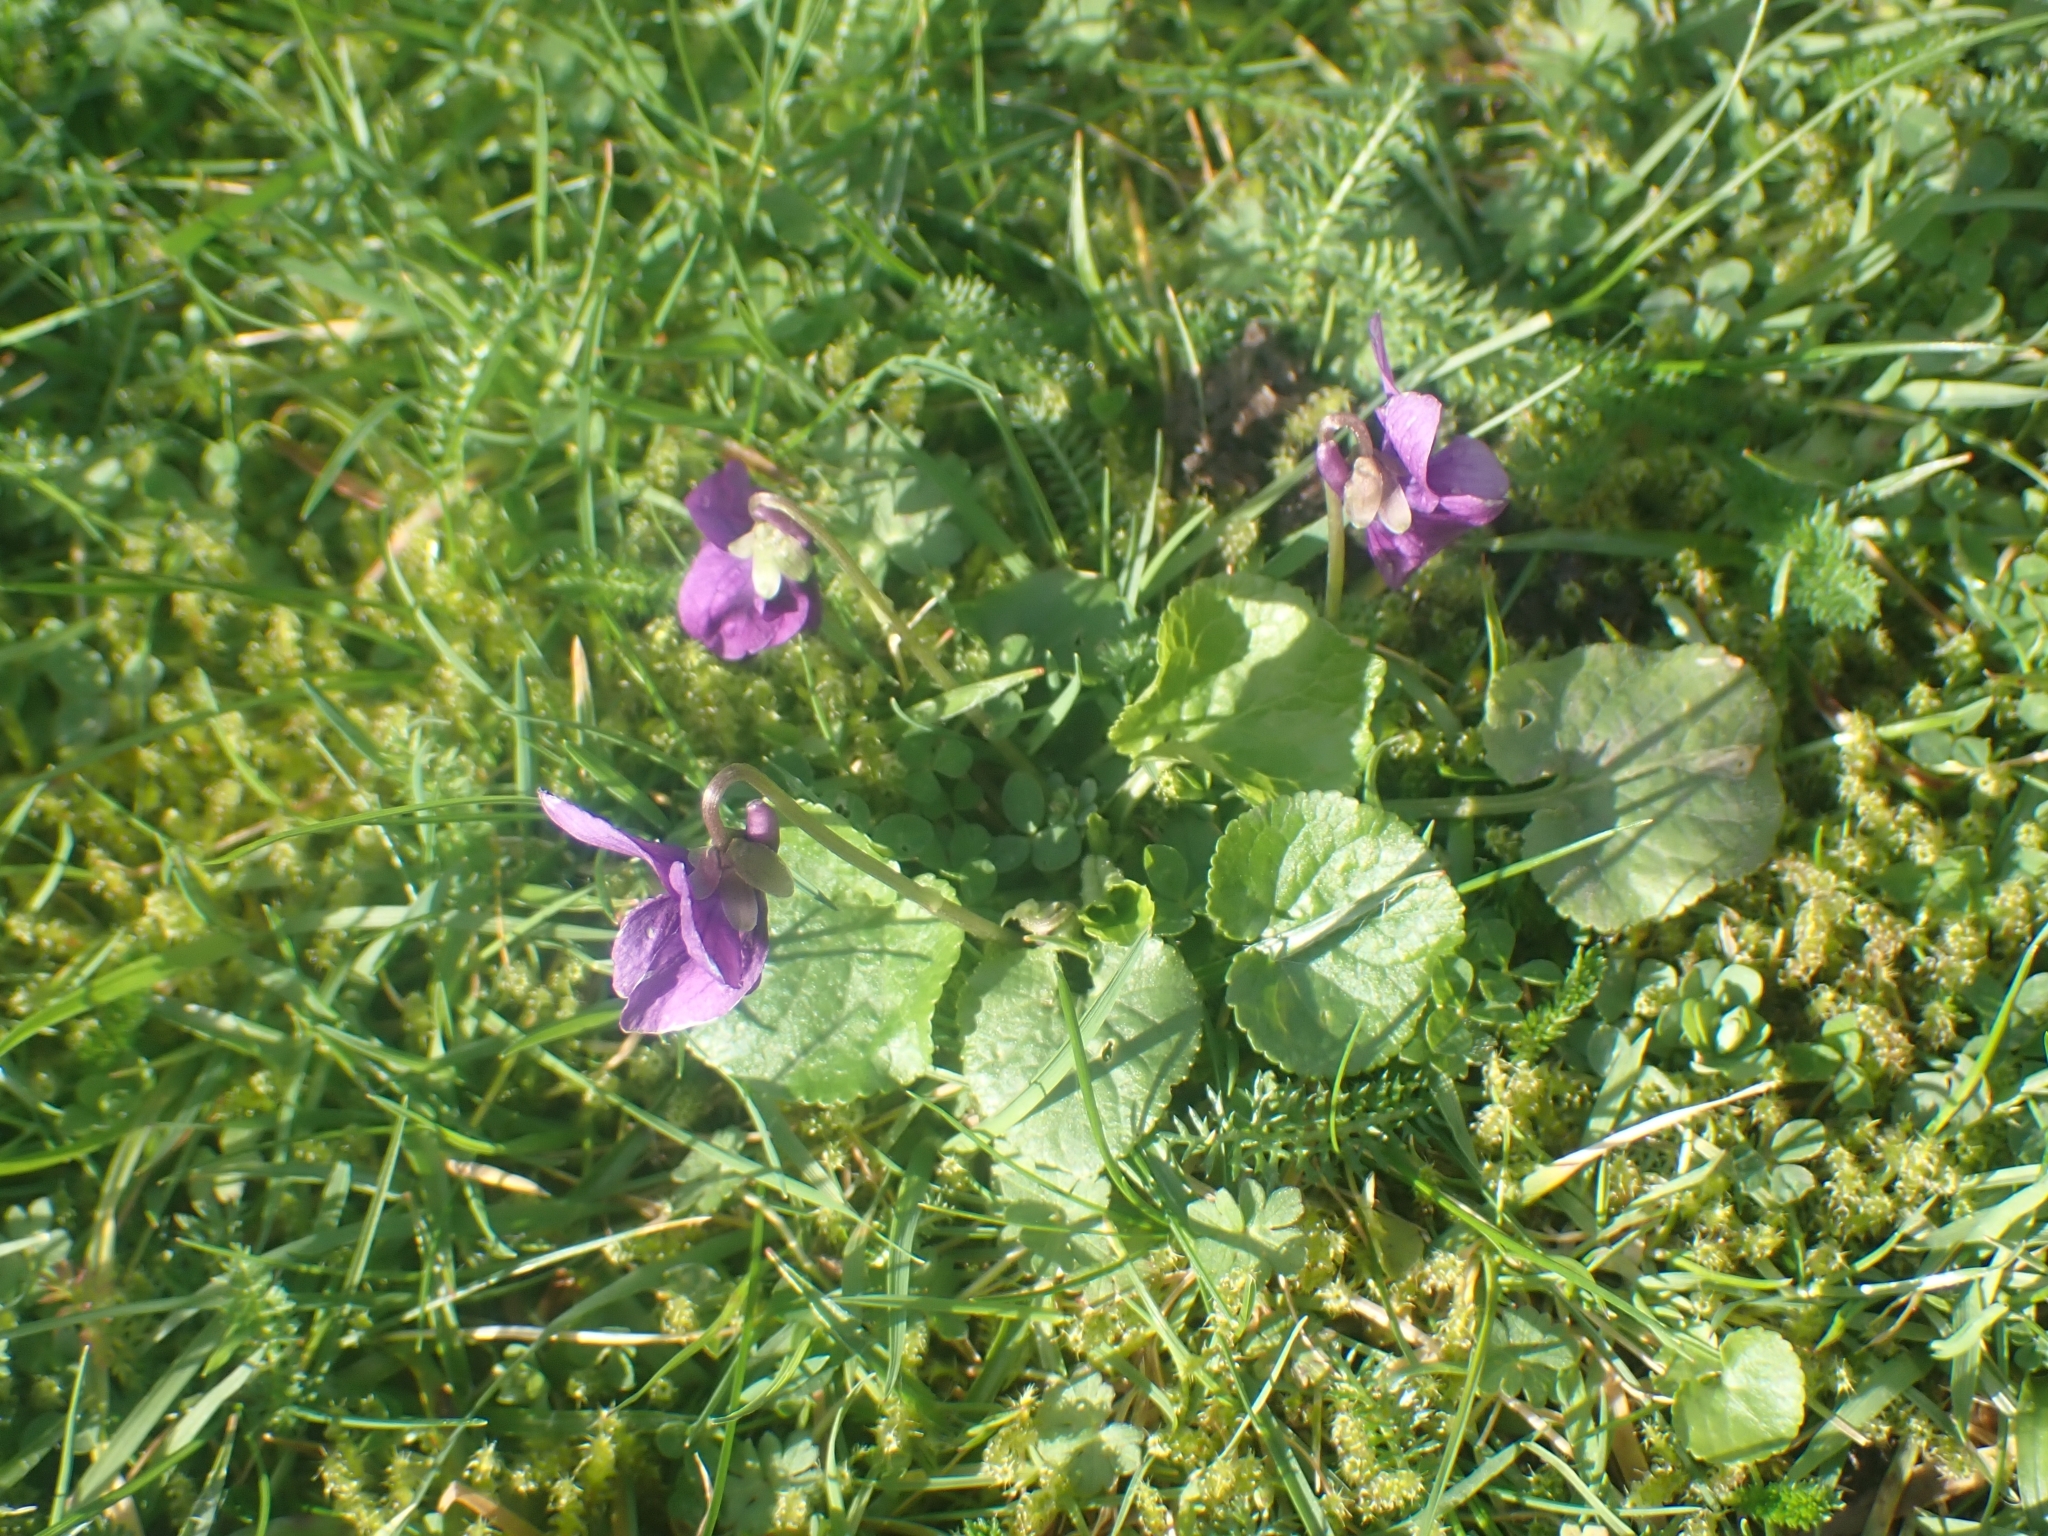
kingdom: Plantae
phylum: Tracheophyta
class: Magnoliopsida
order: Malpighiales
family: Violaceae
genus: Viola
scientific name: Viola odorata
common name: Sweet violet
